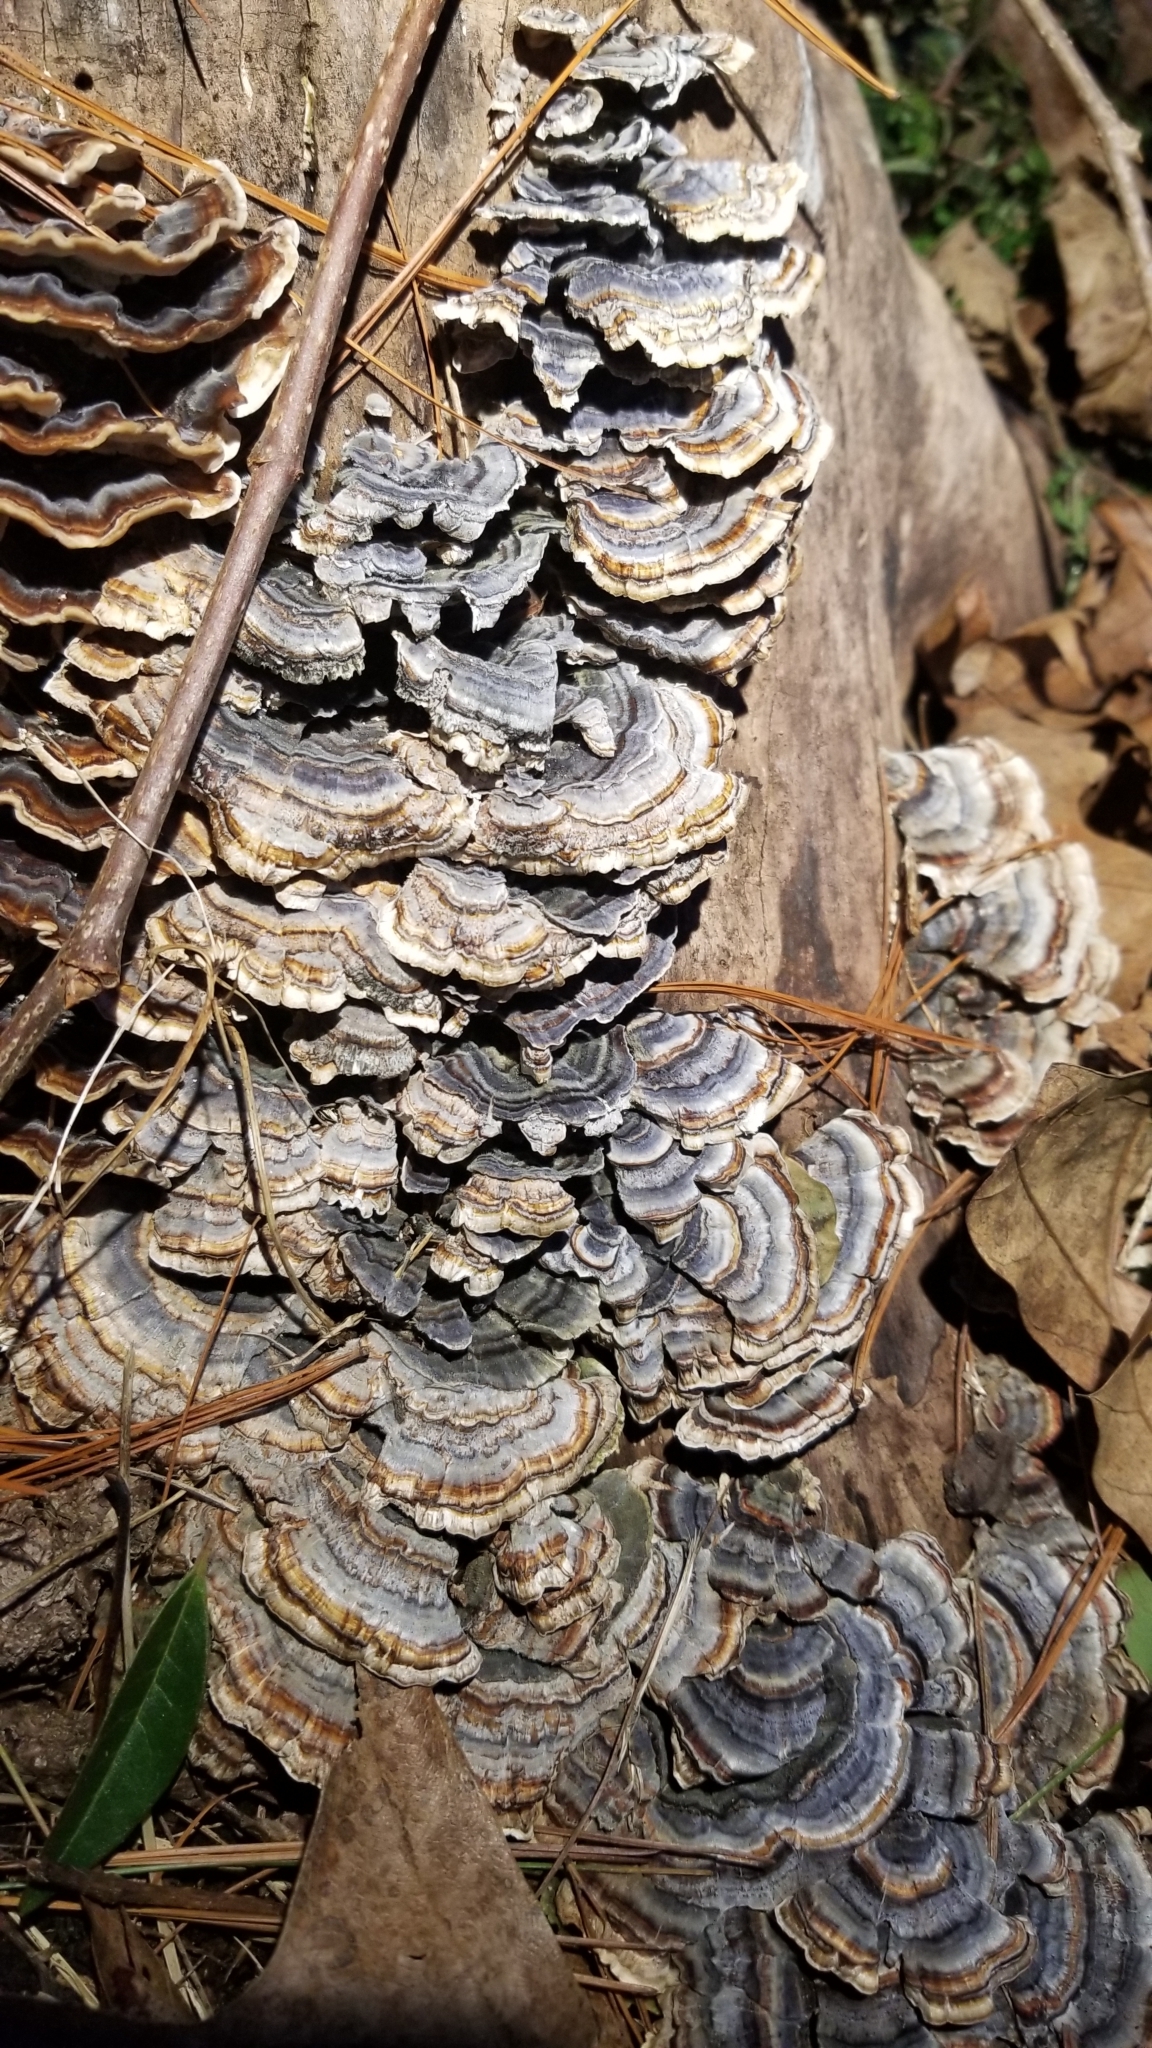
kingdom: Fungi
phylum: Basidiomycota
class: Agaricomycetes
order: Polyporales
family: Polyporaceae
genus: Trametes
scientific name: Trametes versicolor
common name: Turkeytail
